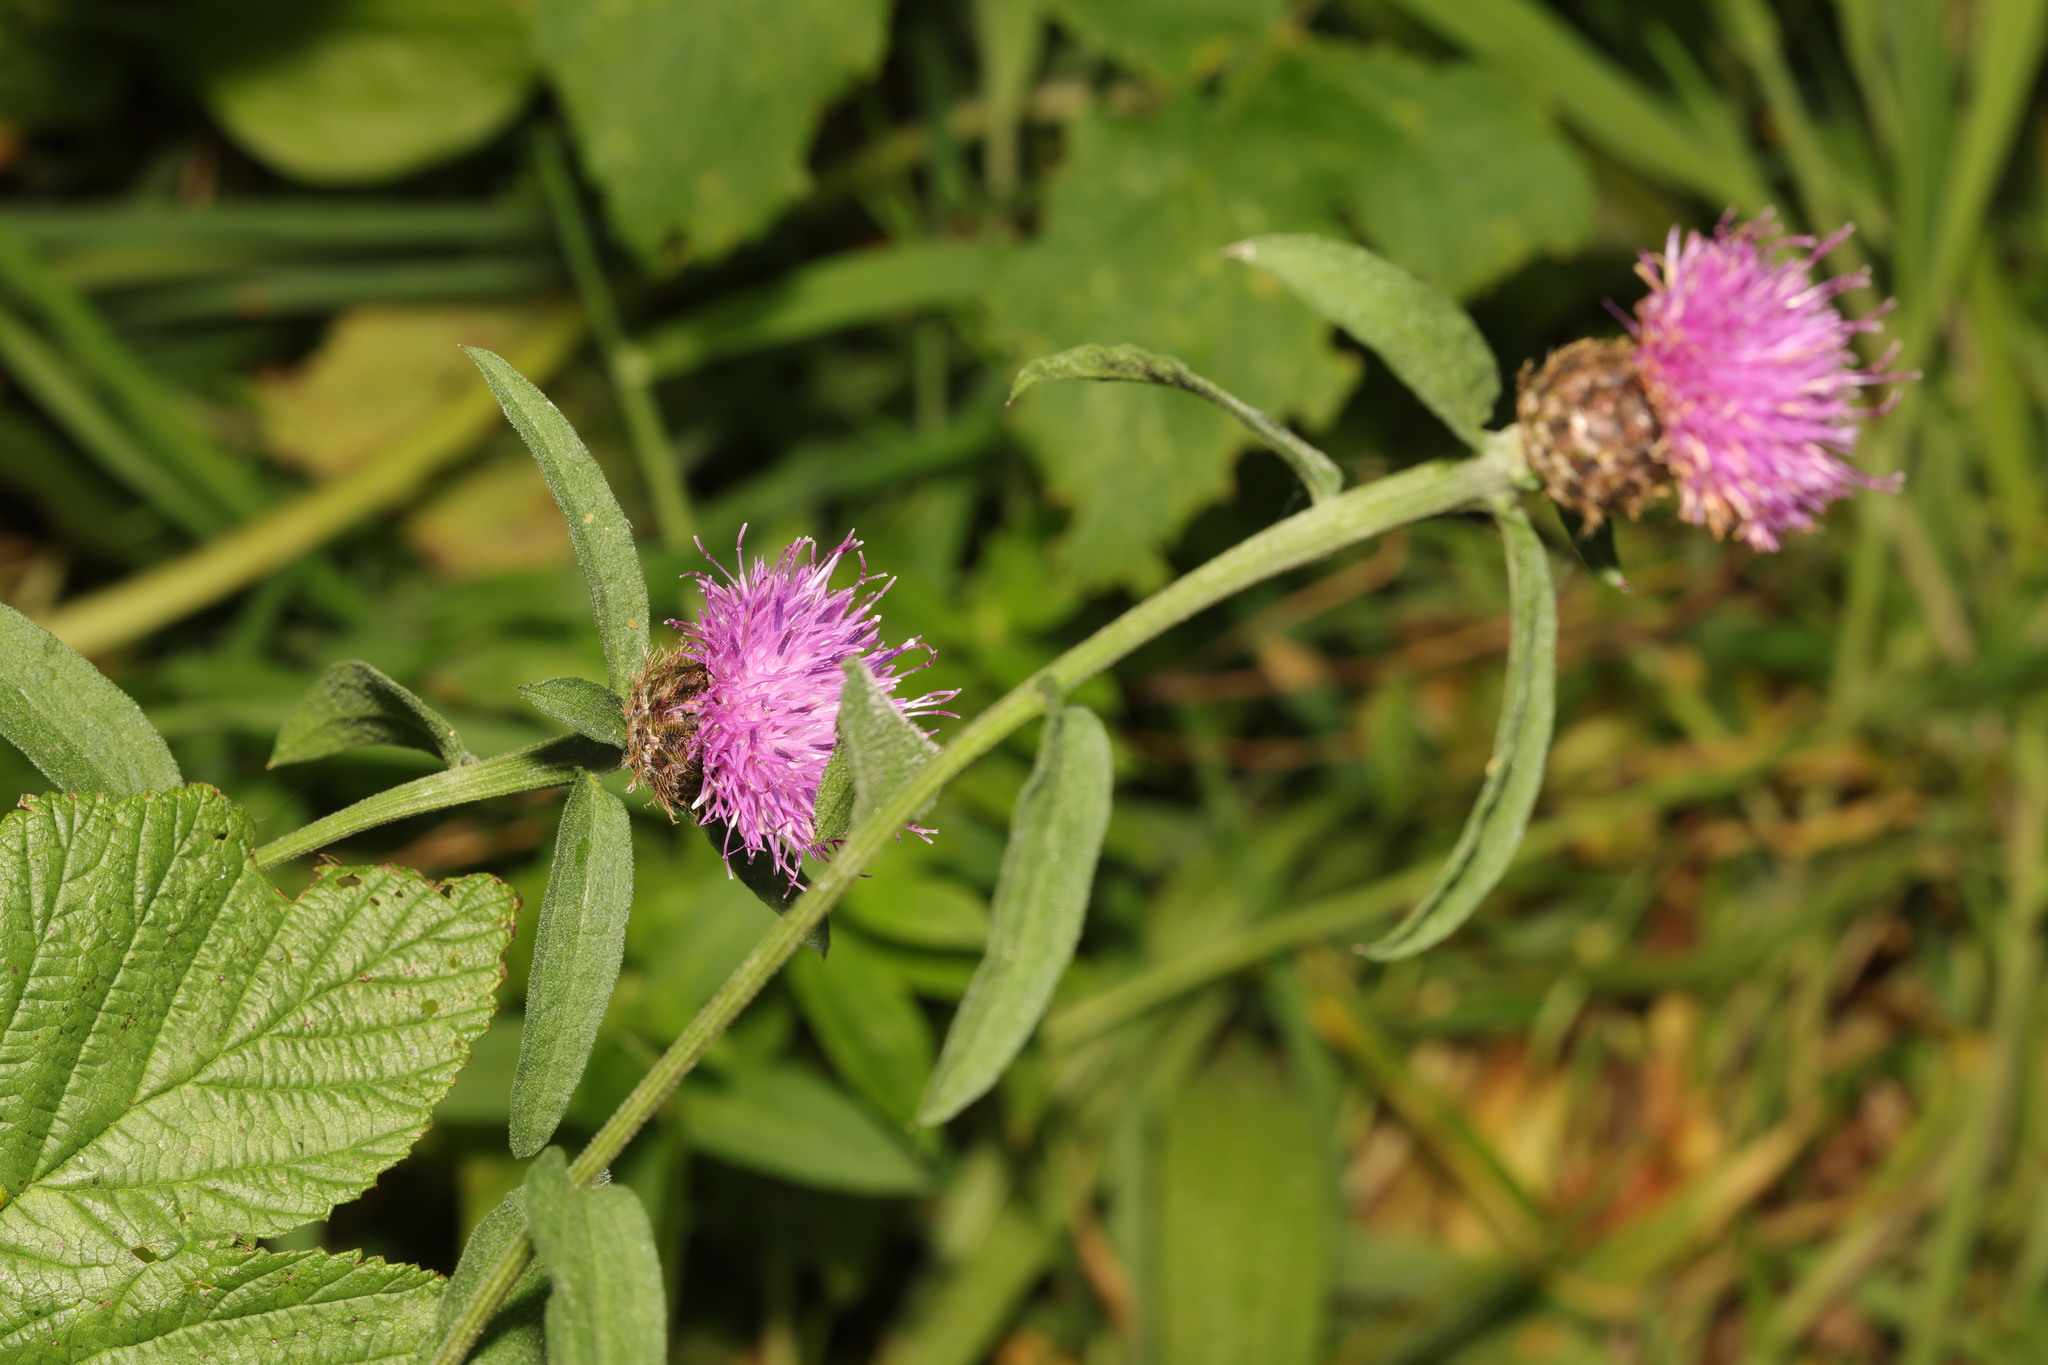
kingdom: Plantae
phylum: Tracheophyta
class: Magnoliopsida
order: Asterales
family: Asteraceae
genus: Centaurea
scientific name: Centaurea nigra
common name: Lesser knapweed
